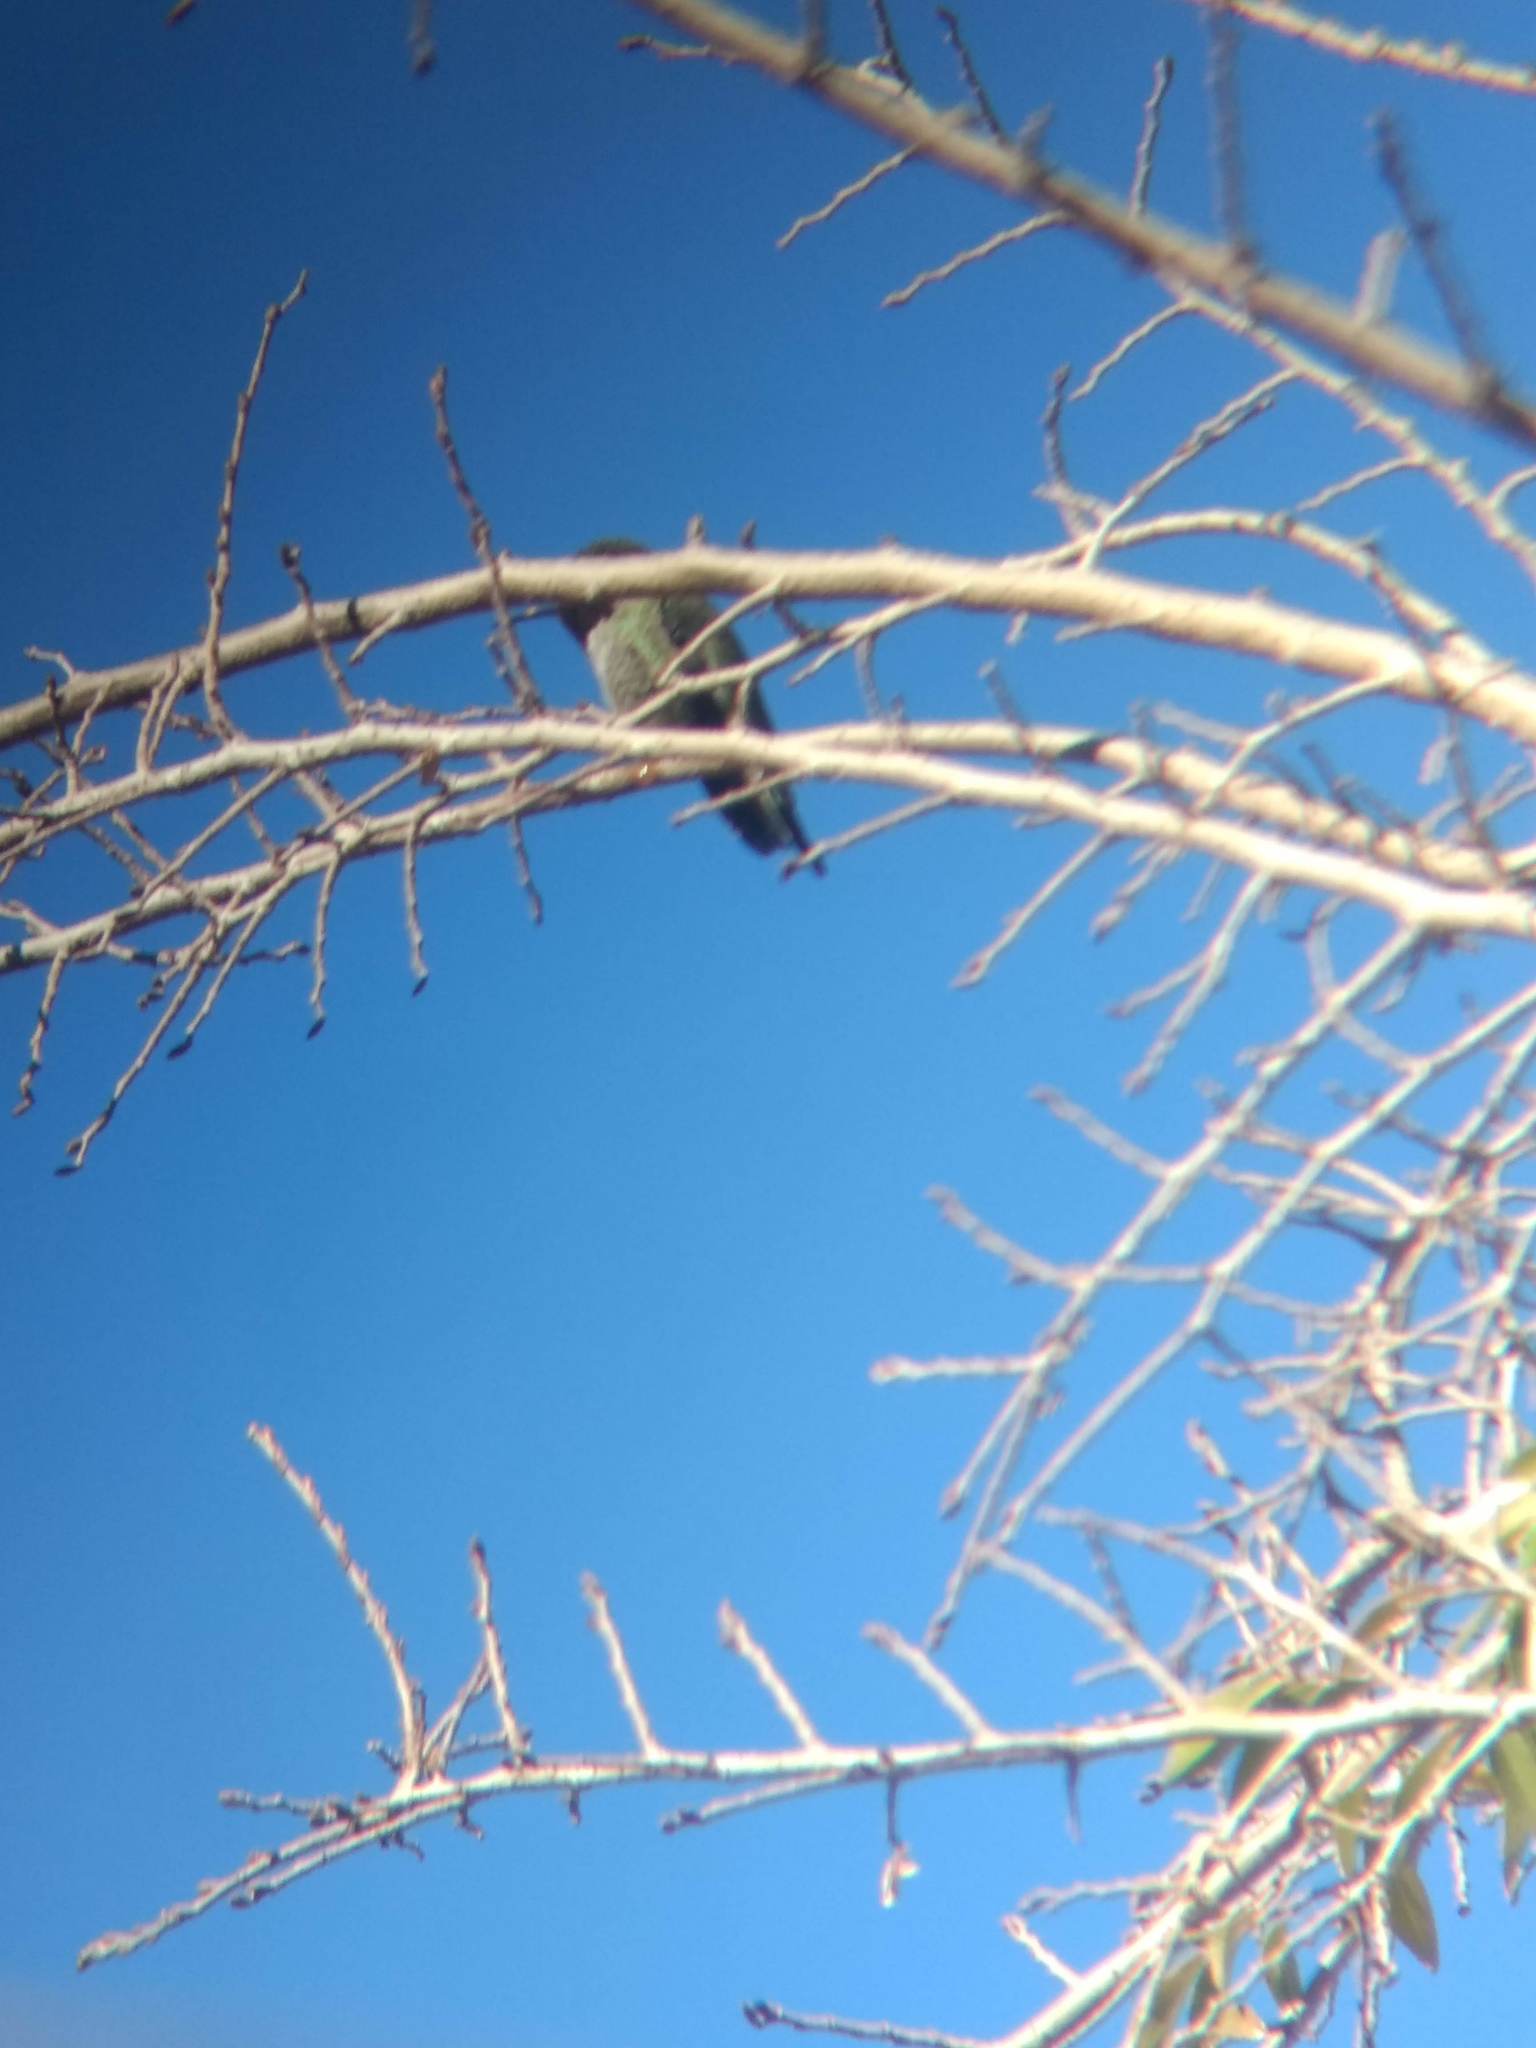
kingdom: Animalia
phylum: Chordata
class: Aves
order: Apodiformes
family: Trochilidae
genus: Calypte
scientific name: Calypte anna
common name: Anna's hummingbird
